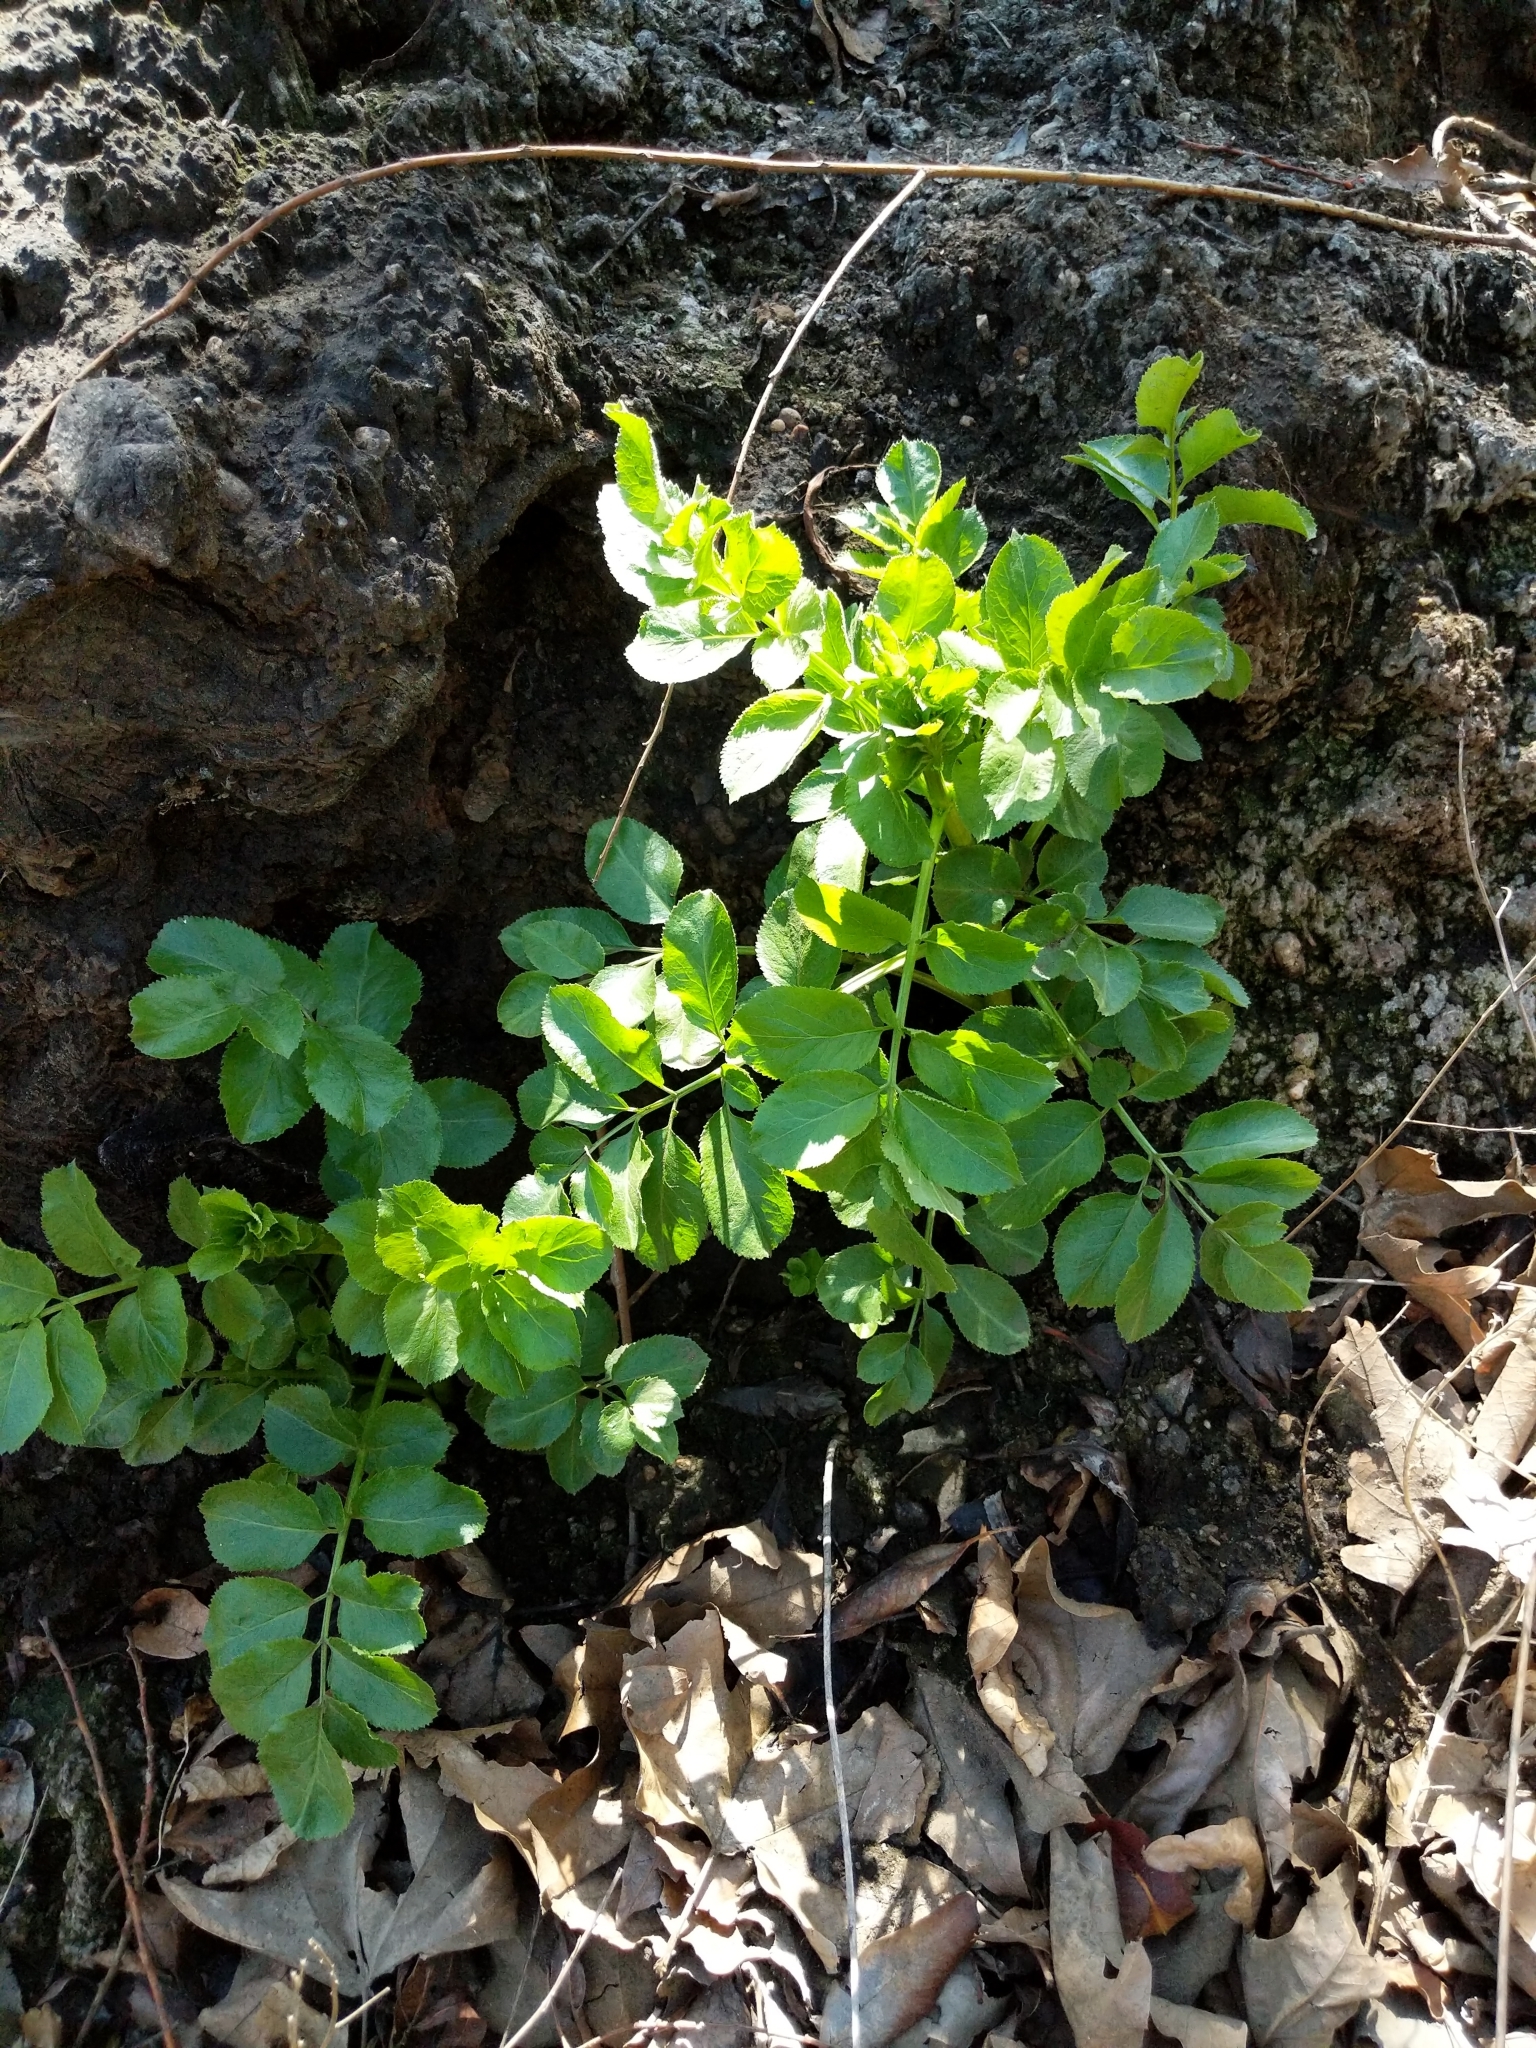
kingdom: Plantae
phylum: Tracheophyta
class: Magnoliopsida
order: Dipsacales
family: Viburnaceae
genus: Sambucus
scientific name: Sambucus cerulea
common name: Blue elder
